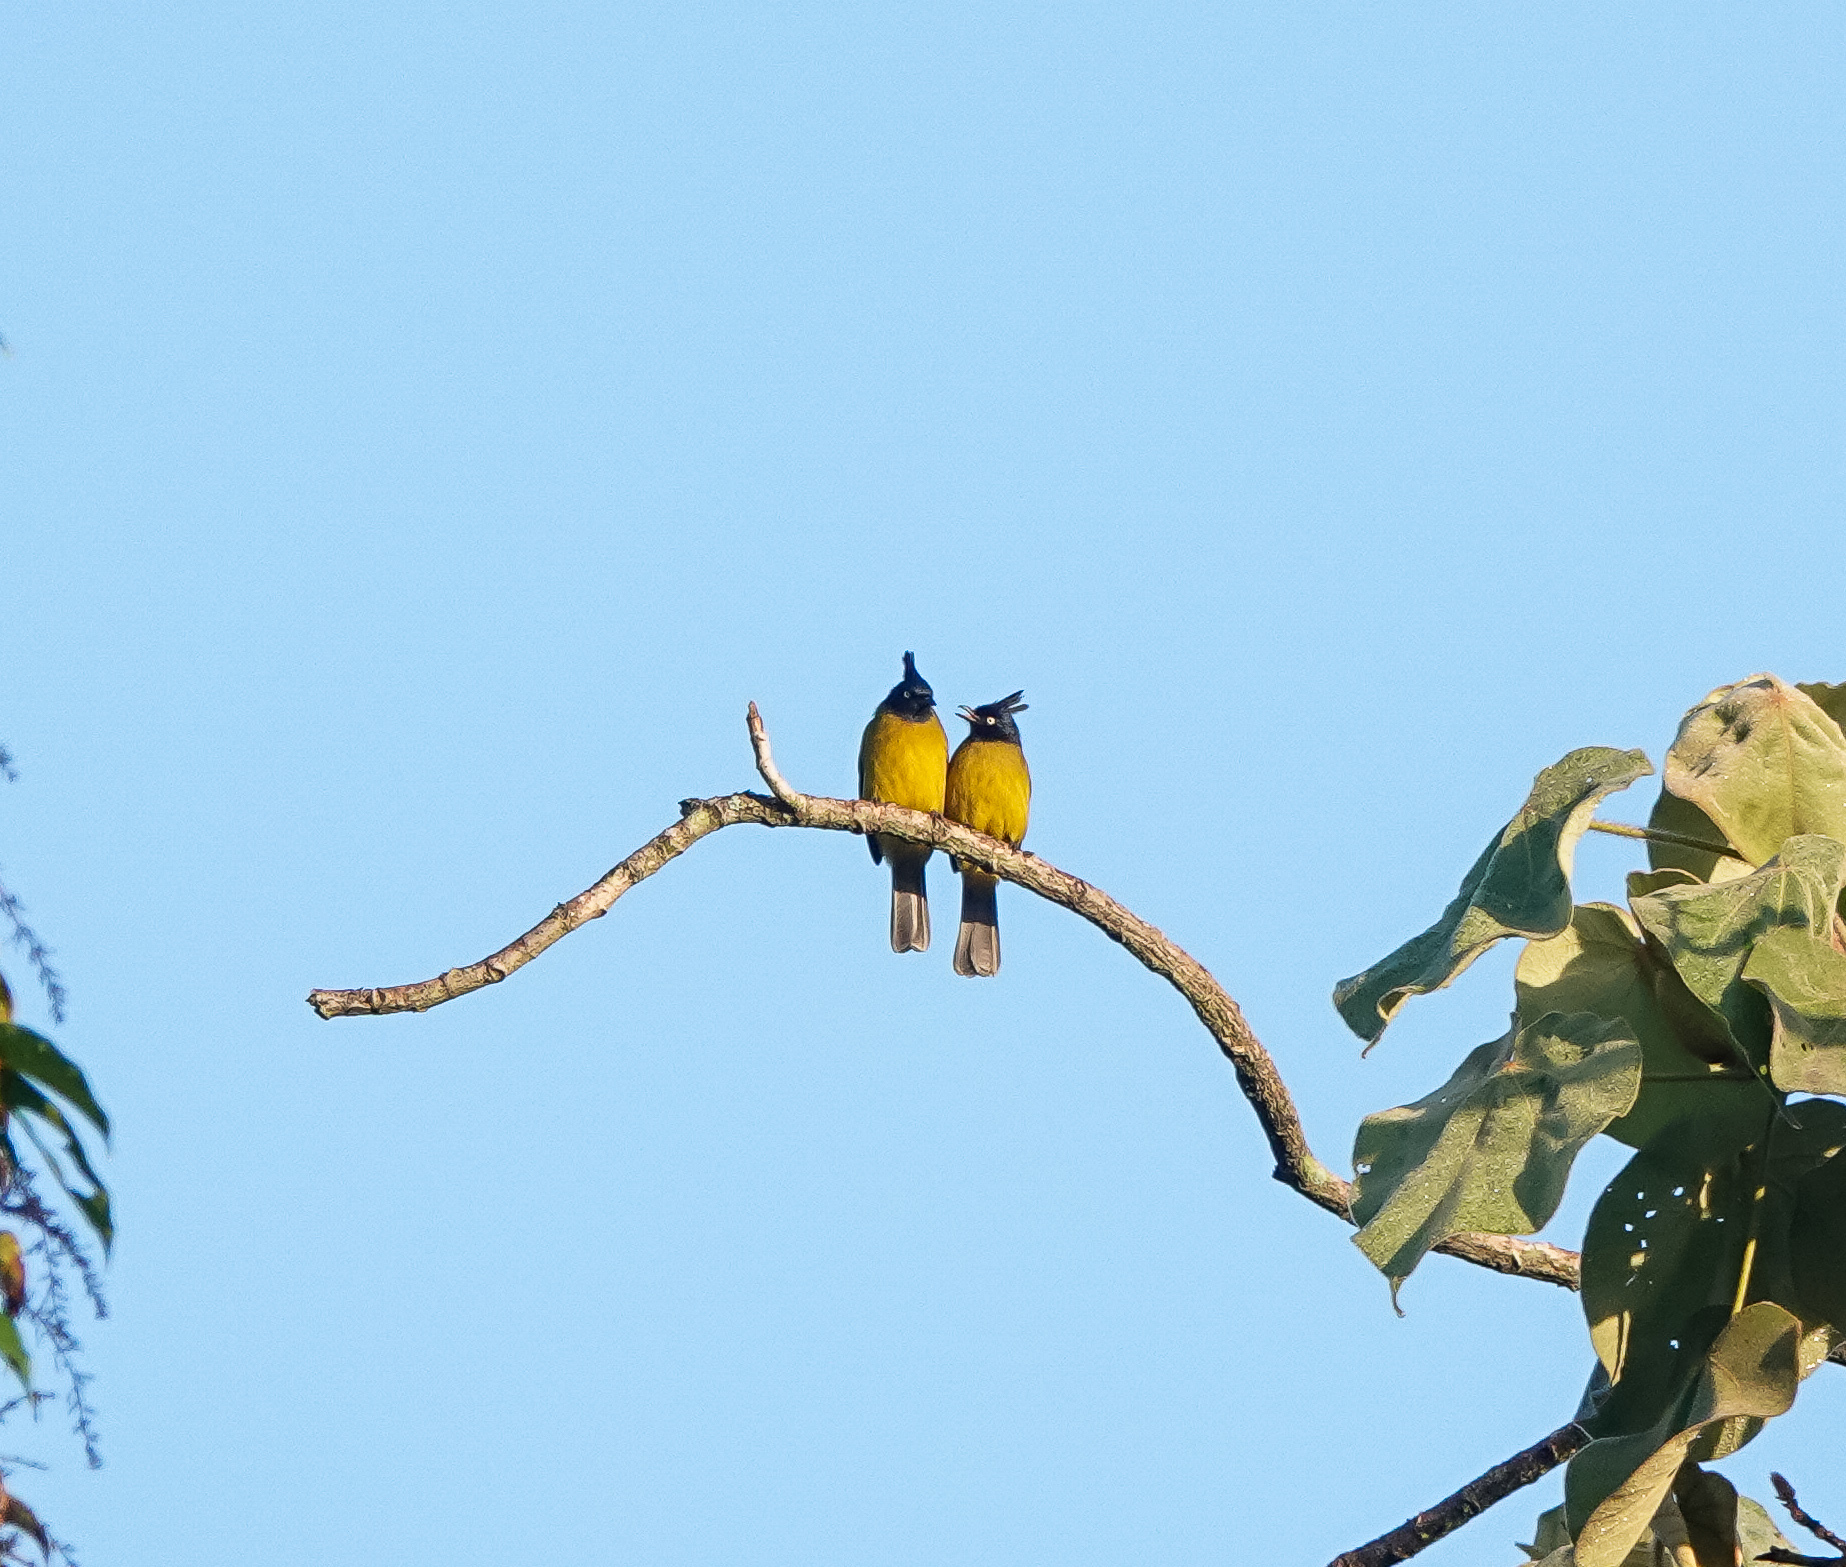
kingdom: Animalia
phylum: Chordata
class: Aves
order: Passeriformes
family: Pycnonotidae
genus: Pycnonotus
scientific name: Pycnonotus flaviventris
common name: Black-crested bulbul
